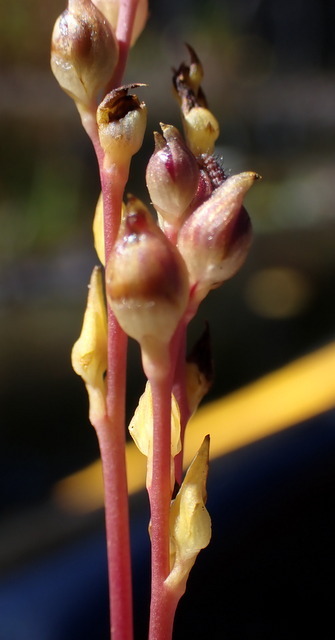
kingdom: Plantae
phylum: Tracheophyta
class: Magnoliopsida
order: Lamiales
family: Lentibulariaceae
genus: Utricularia
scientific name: Utricularia juncea
